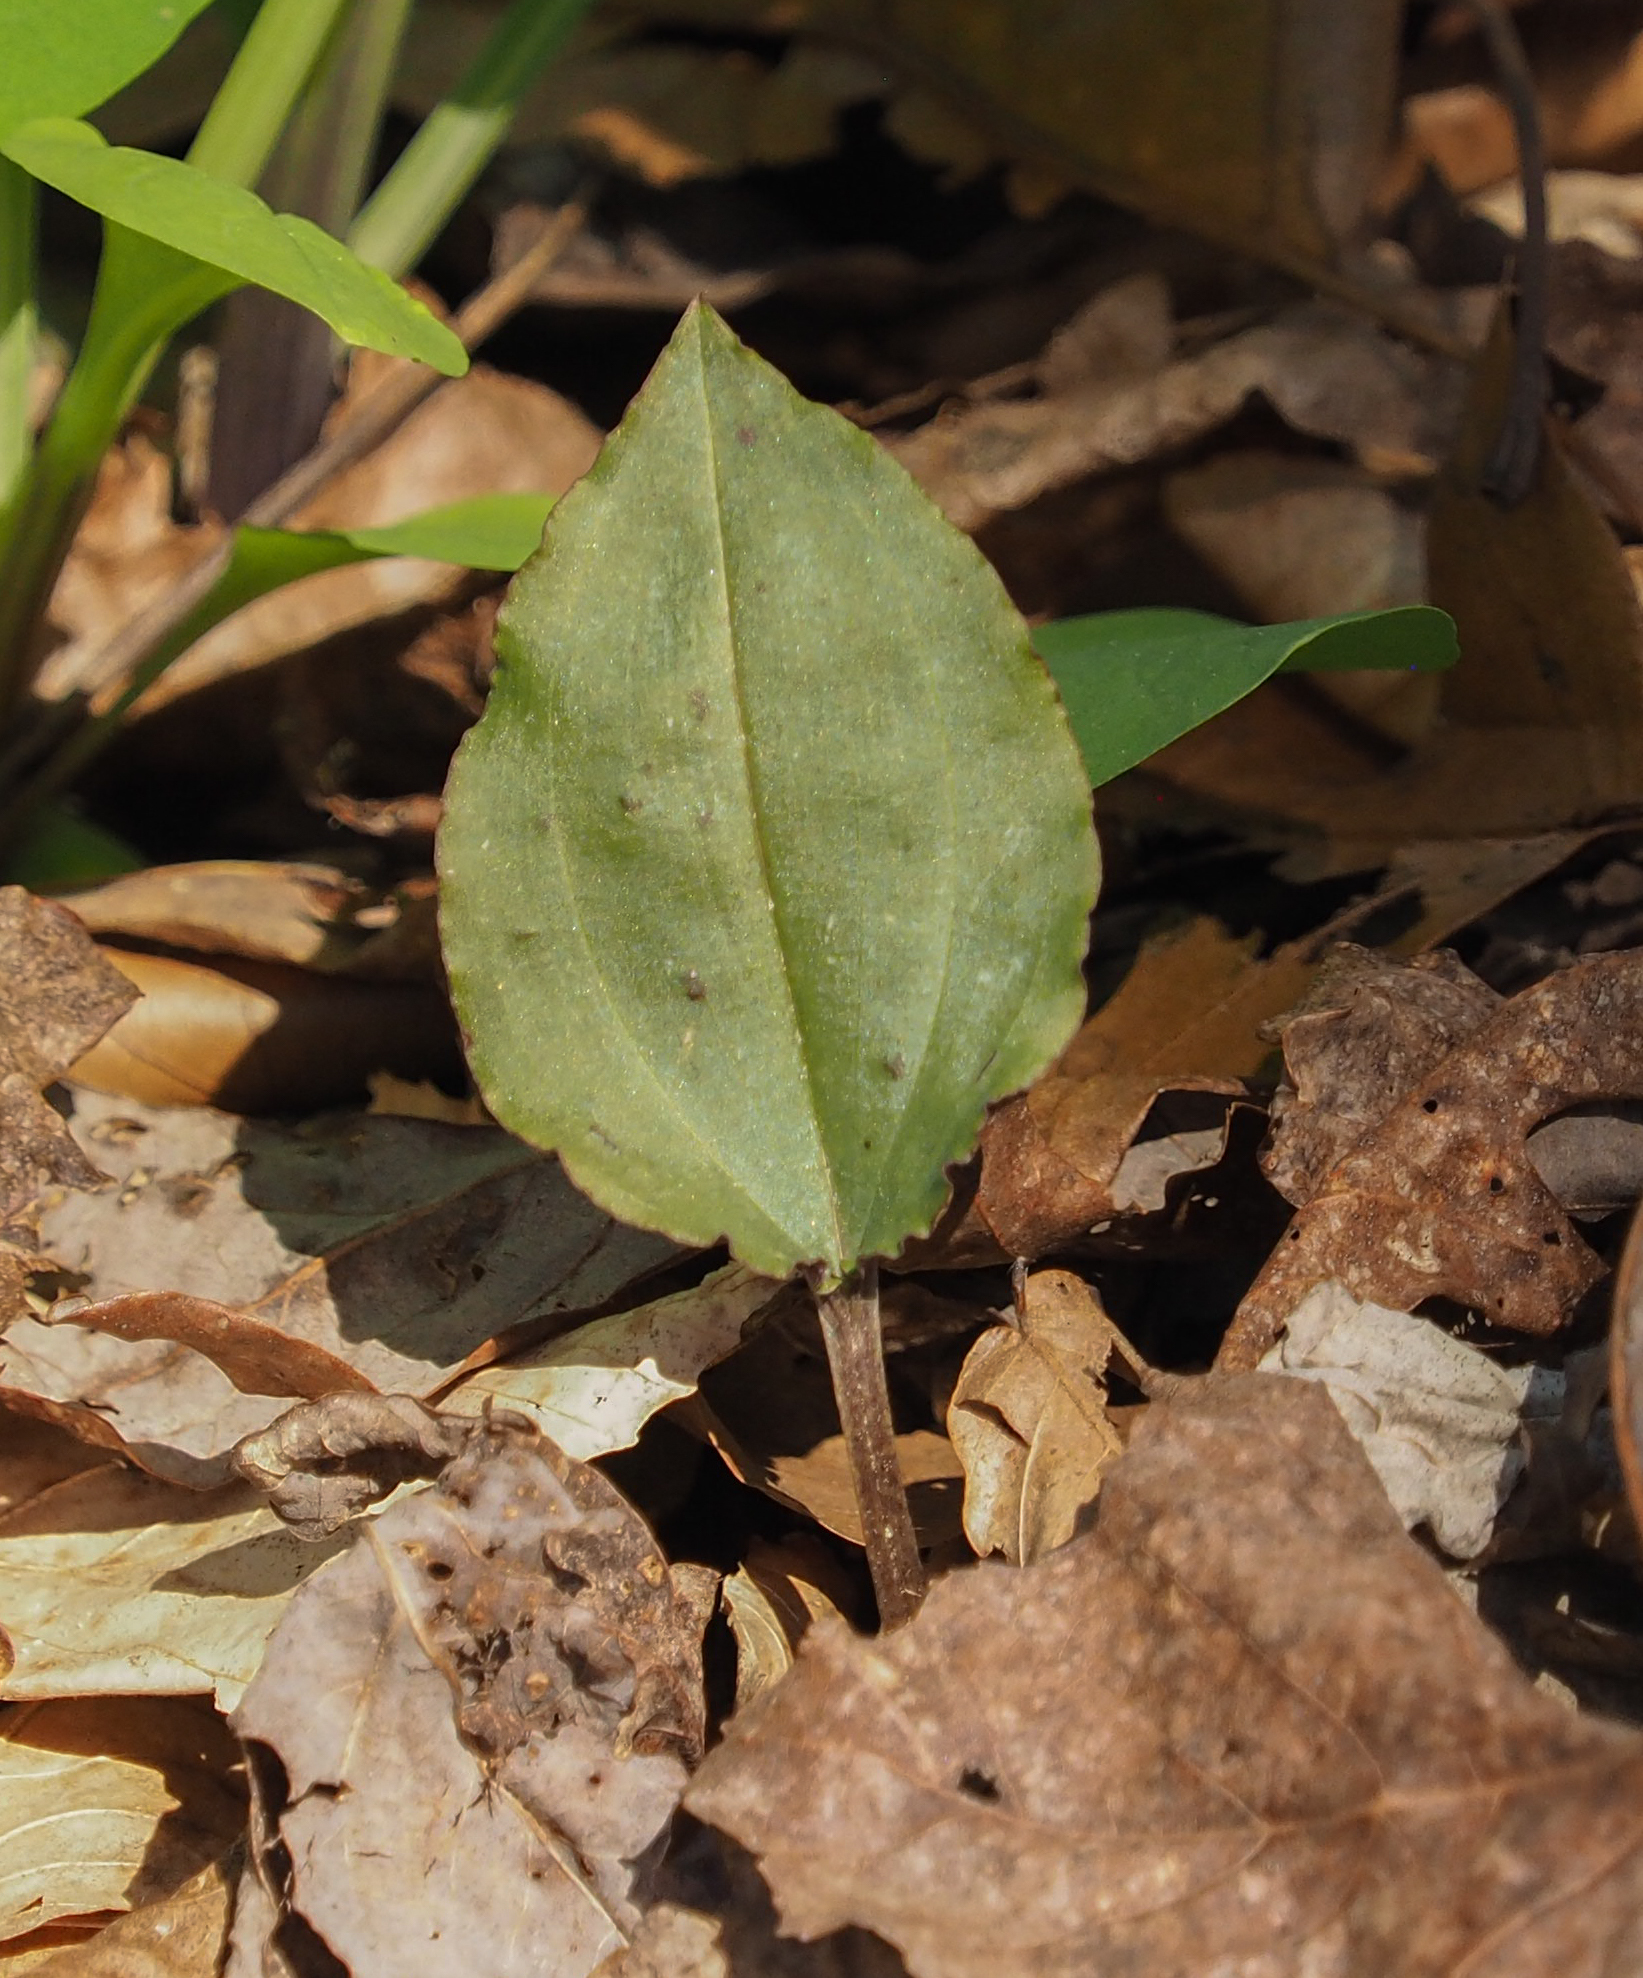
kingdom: Plantae
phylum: Tracheophyta
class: Liliopsida
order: Asparagales
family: Orchidaceae
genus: Tipularia
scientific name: Tipularia discolor
